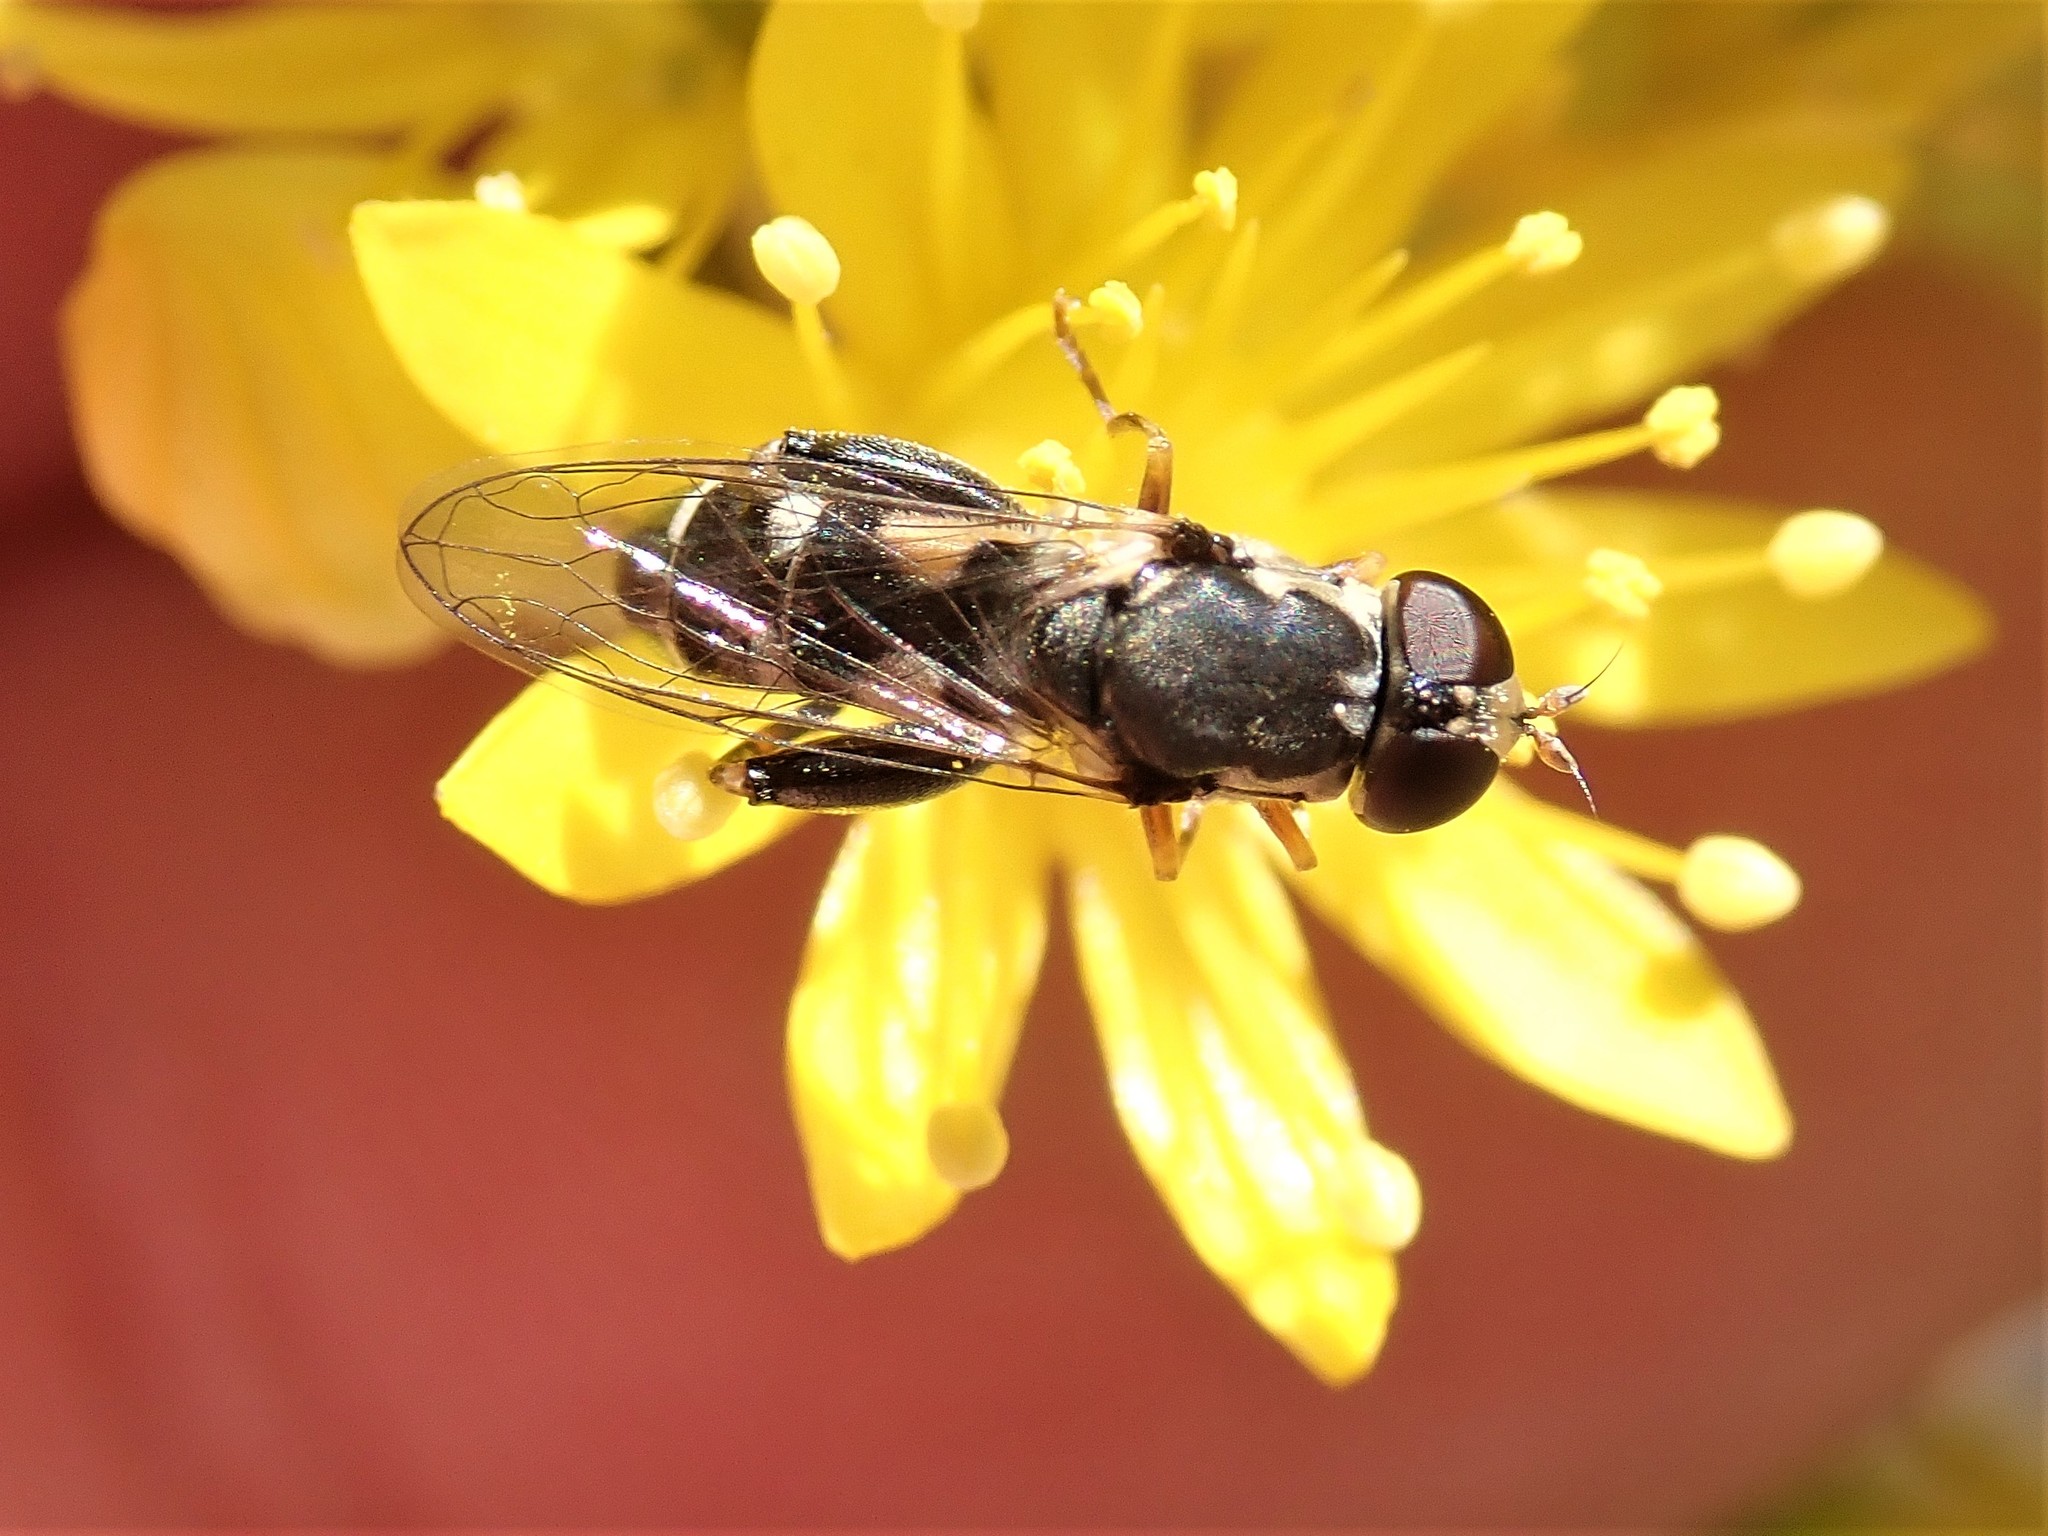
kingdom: Animalia
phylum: Arthropoda
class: Insecta
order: Diptera
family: Syrphidae
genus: Syritta
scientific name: Syritta pipiens
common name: Hover fly
